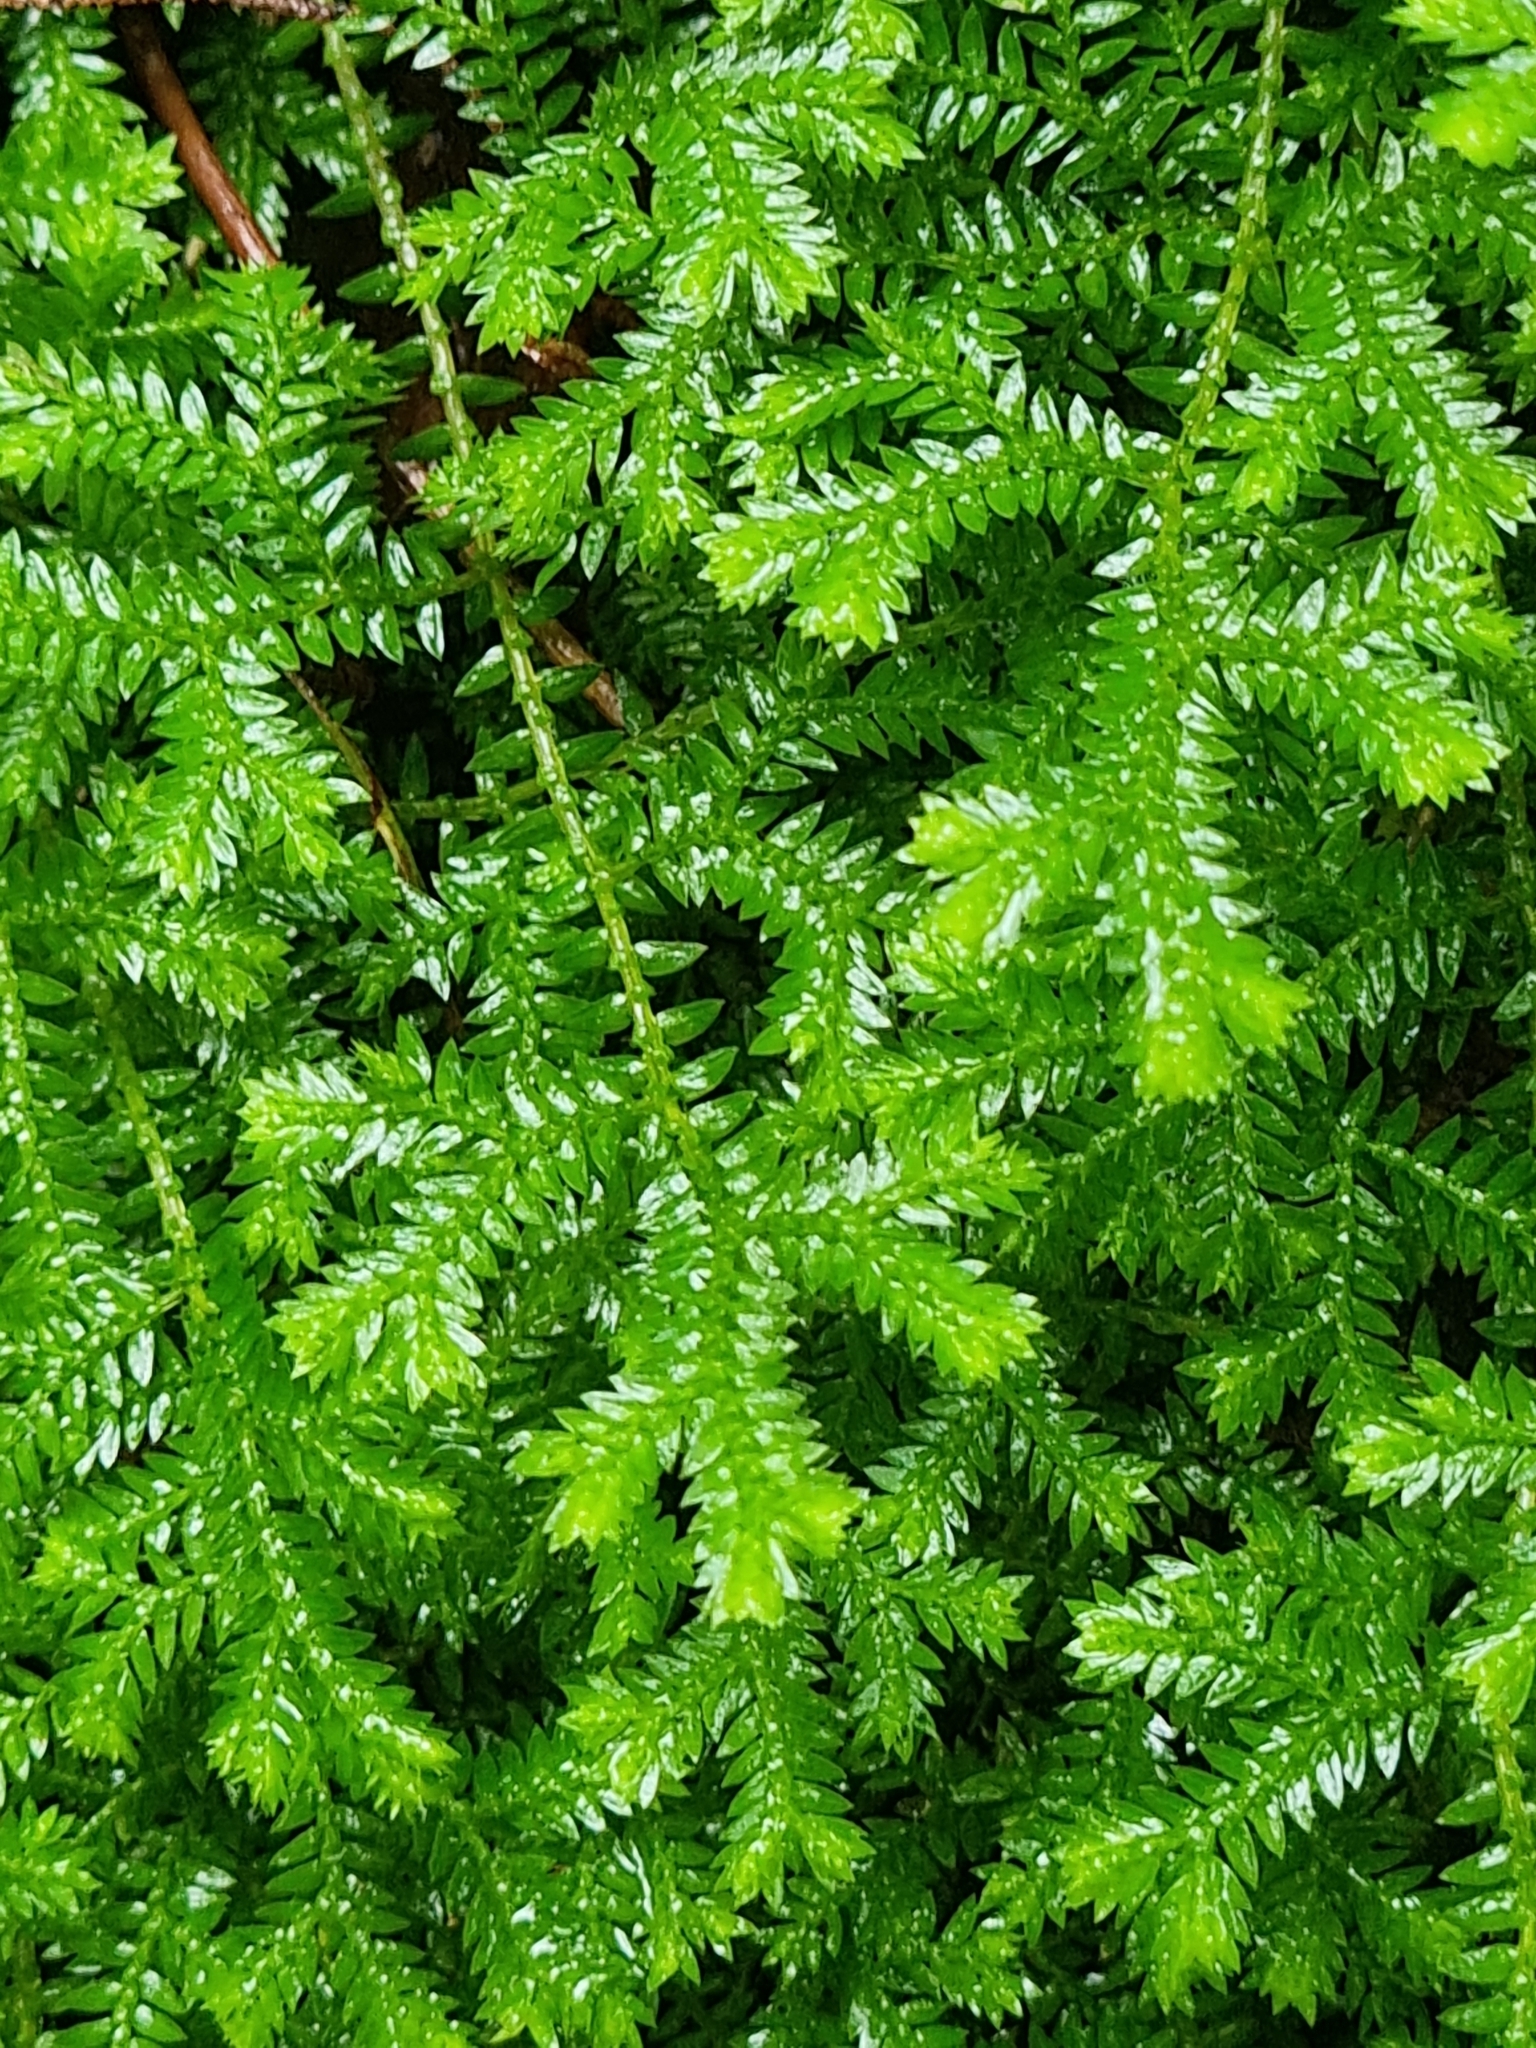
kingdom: Plantae
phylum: Tracheophyta
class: Lycopodiopsida
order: Selaginellales
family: Selaginellaceae
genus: Selaginella
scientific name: Selaginella kraussiana
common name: Krauss' spikemoss
